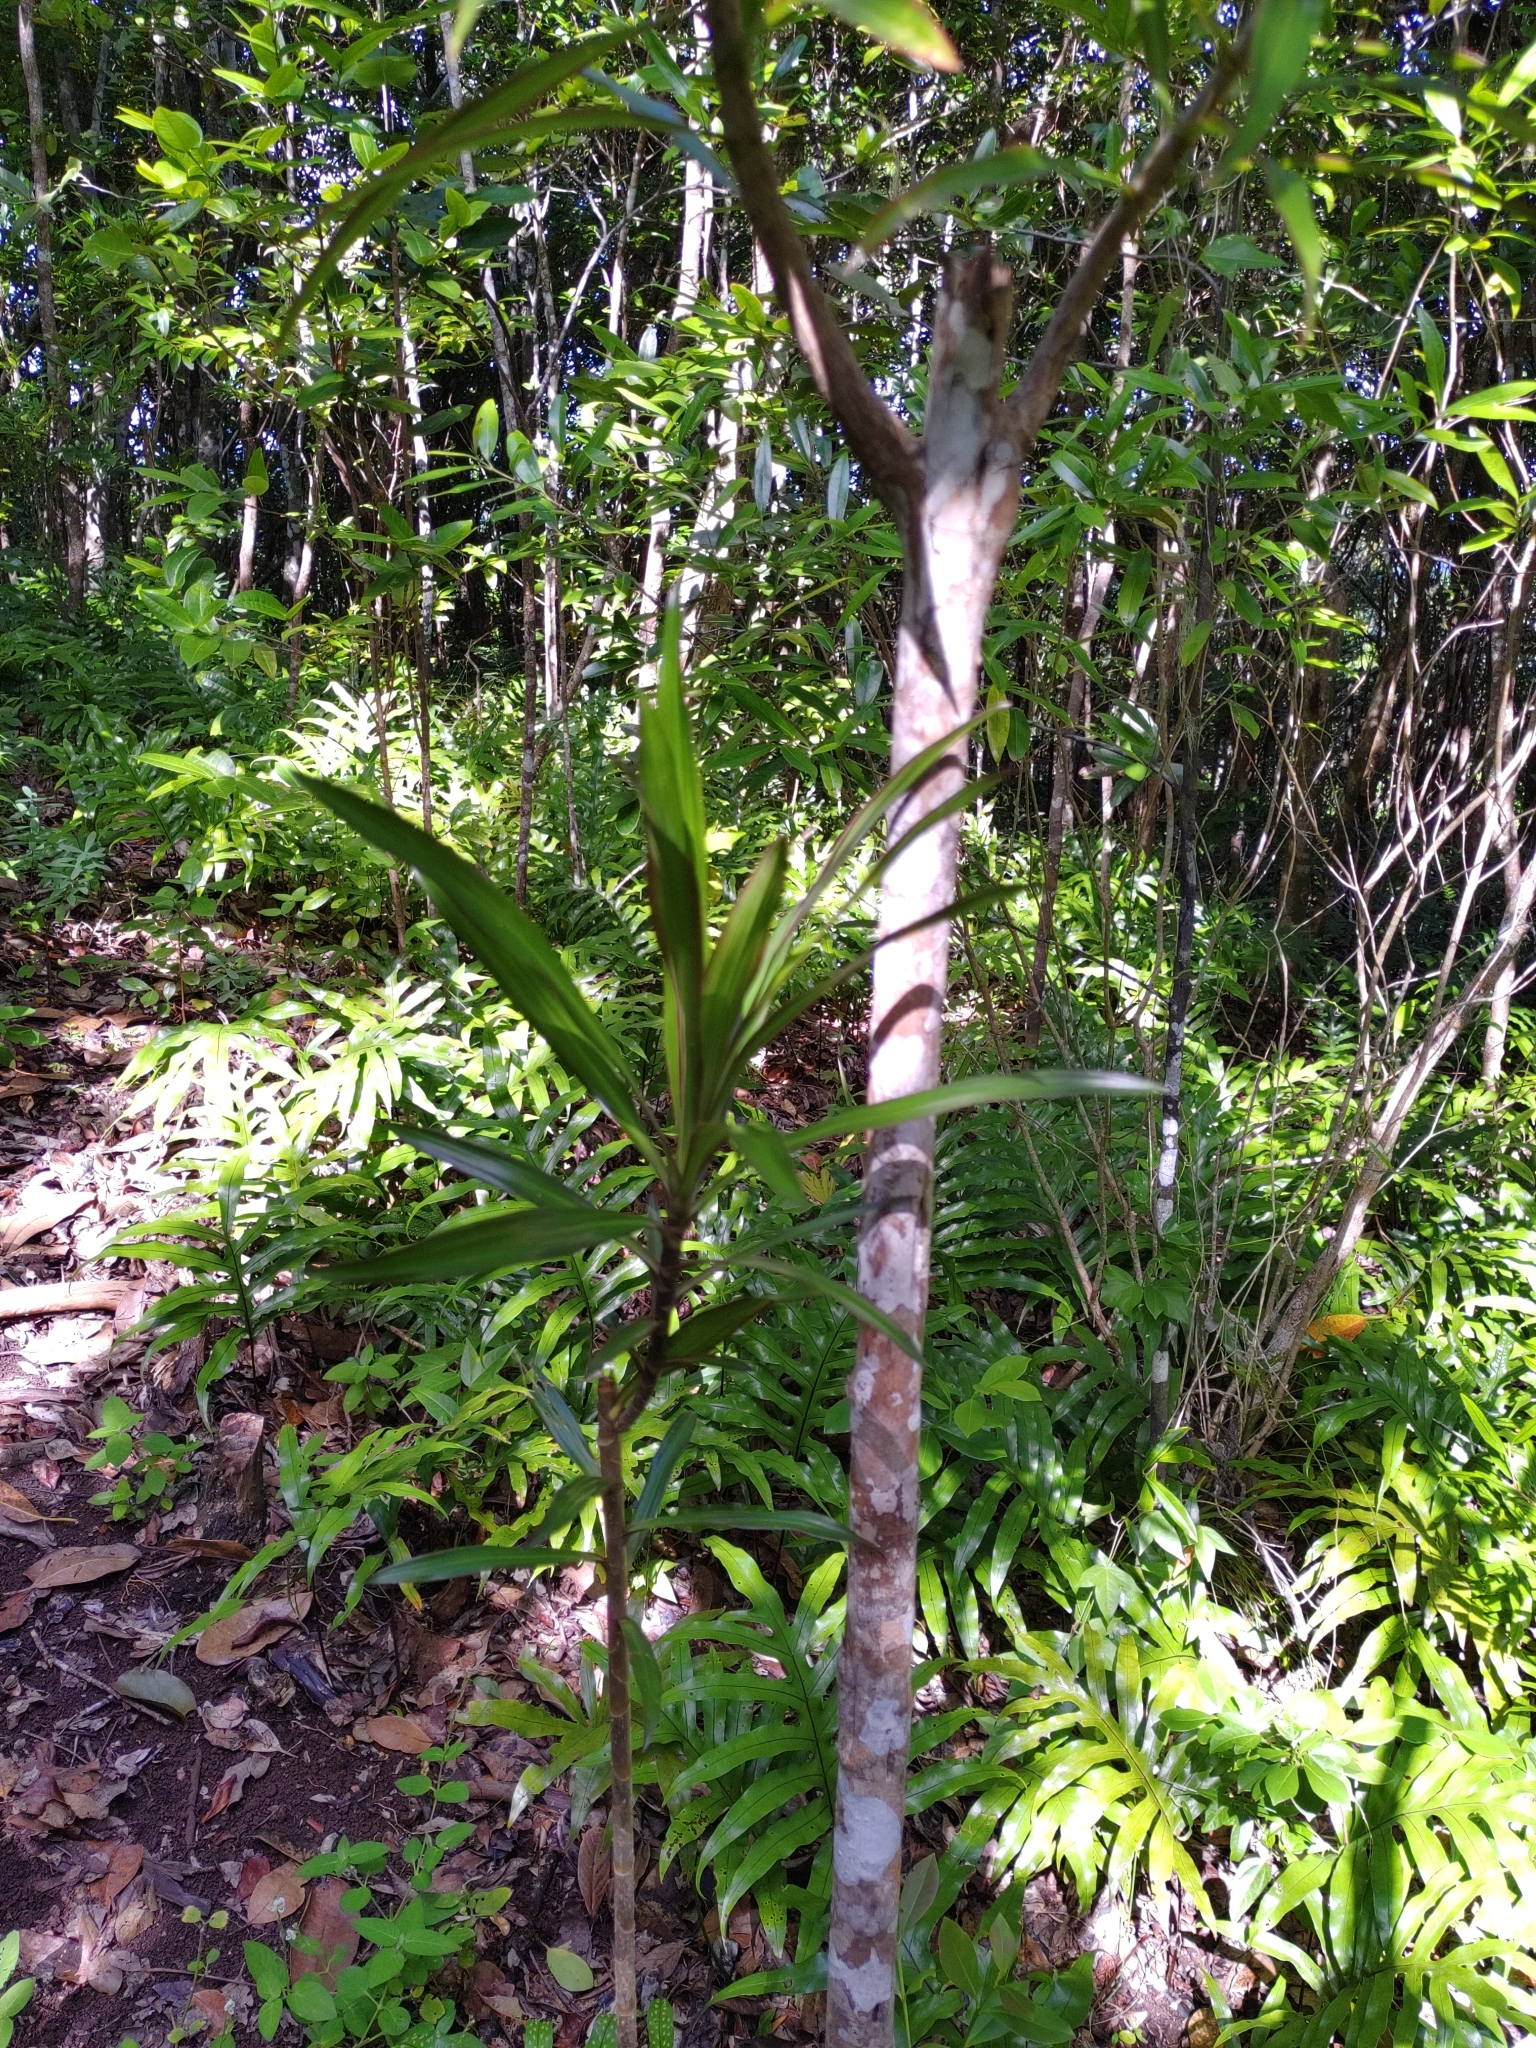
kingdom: Plantae
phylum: Tracheophyta
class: Liliopsida
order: Asparagales
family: Asparagaceae
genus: Dracaena
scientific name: Dracaena reflexa
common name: Song-of-india
